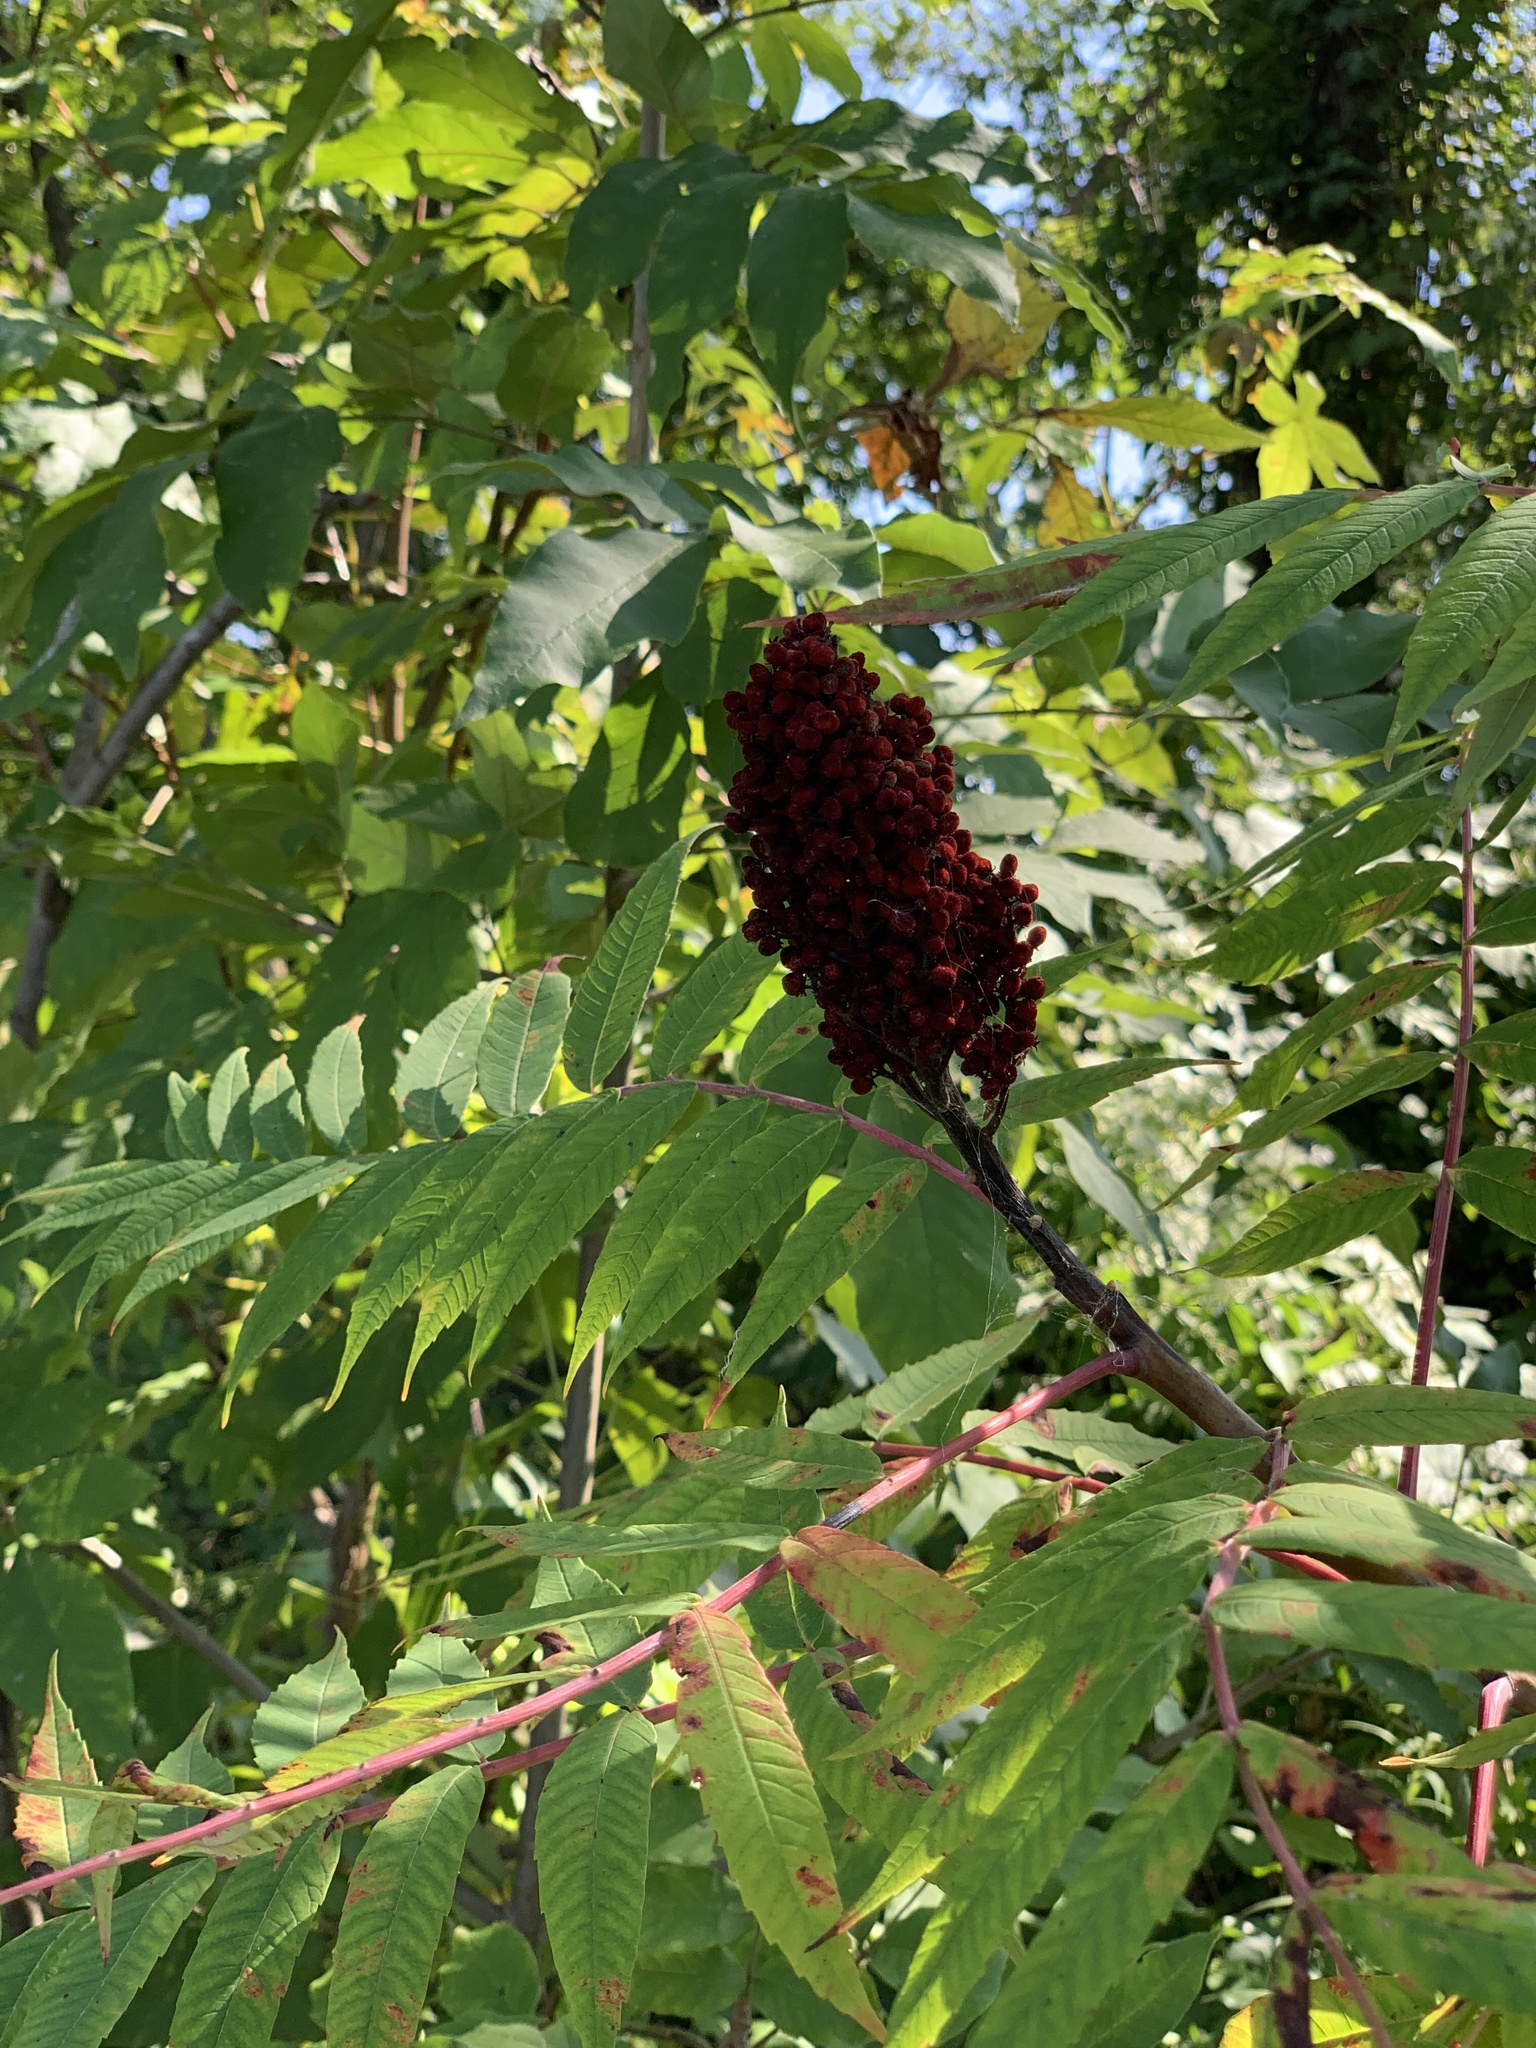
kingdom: Plantae
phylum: Tracheophyta
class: Magnoliopsida
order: Sapindales
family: Anacardiaceae
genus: Rhus
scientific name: Rhus glabra
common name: Scarlet sumac
